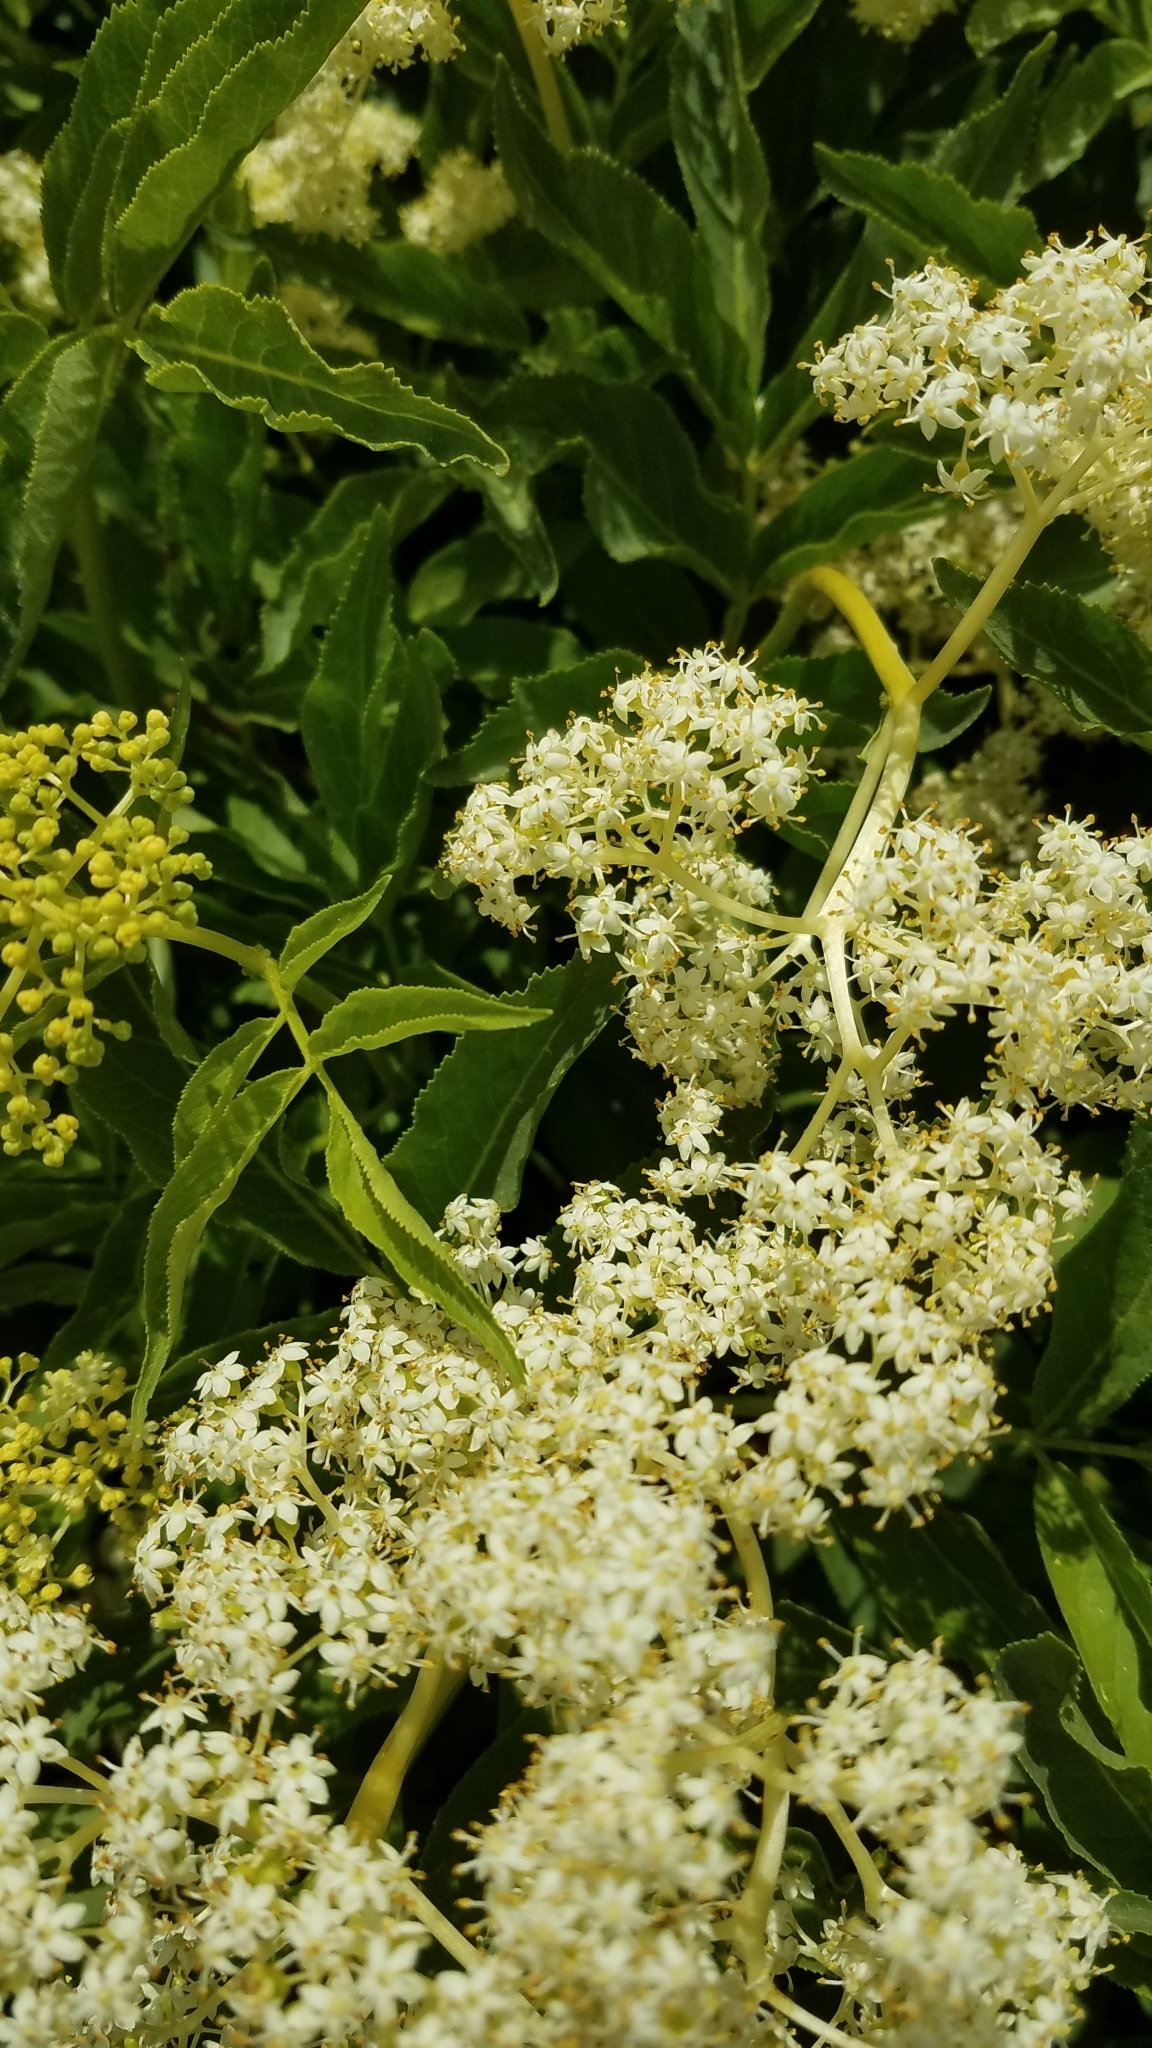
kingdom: Plantae
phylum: Tracheophyta
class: Magnoliopsida
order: Dipsacales
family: Viburnaceae
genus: Sambucus
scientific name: Sambucus cerulea
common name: Blue elder
